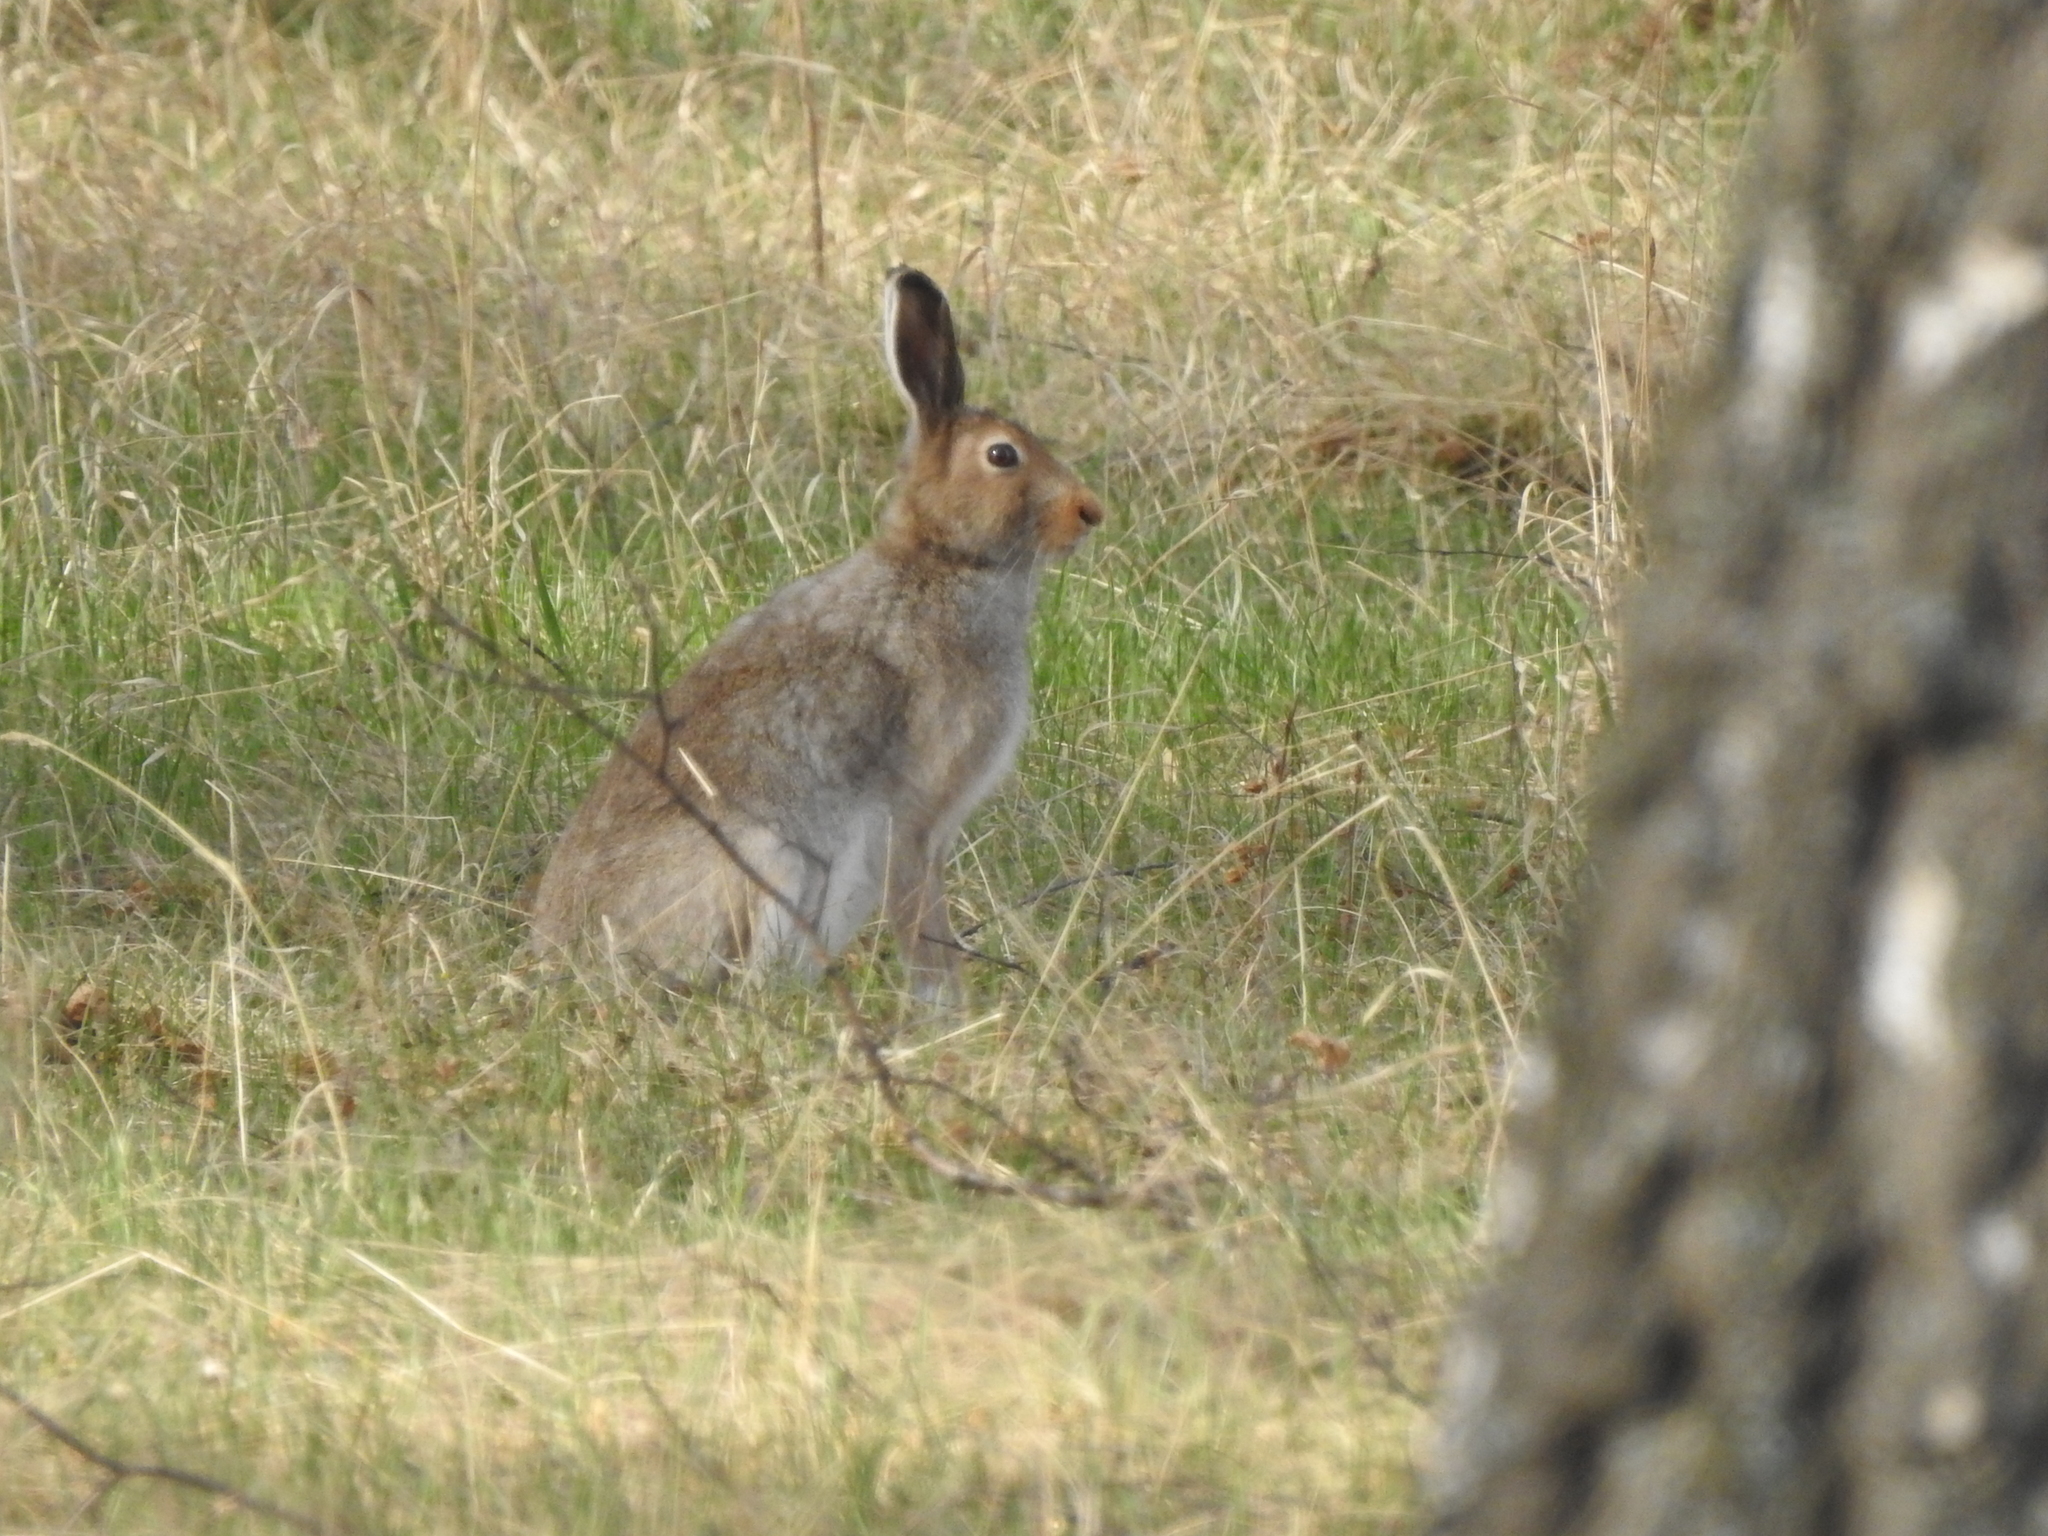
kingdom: Animalia
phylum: Chordata
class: Mammalia
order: Lagomorpha
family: Leporidae
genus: Lepus
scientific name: Lepus timidus
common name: Mountain hare
